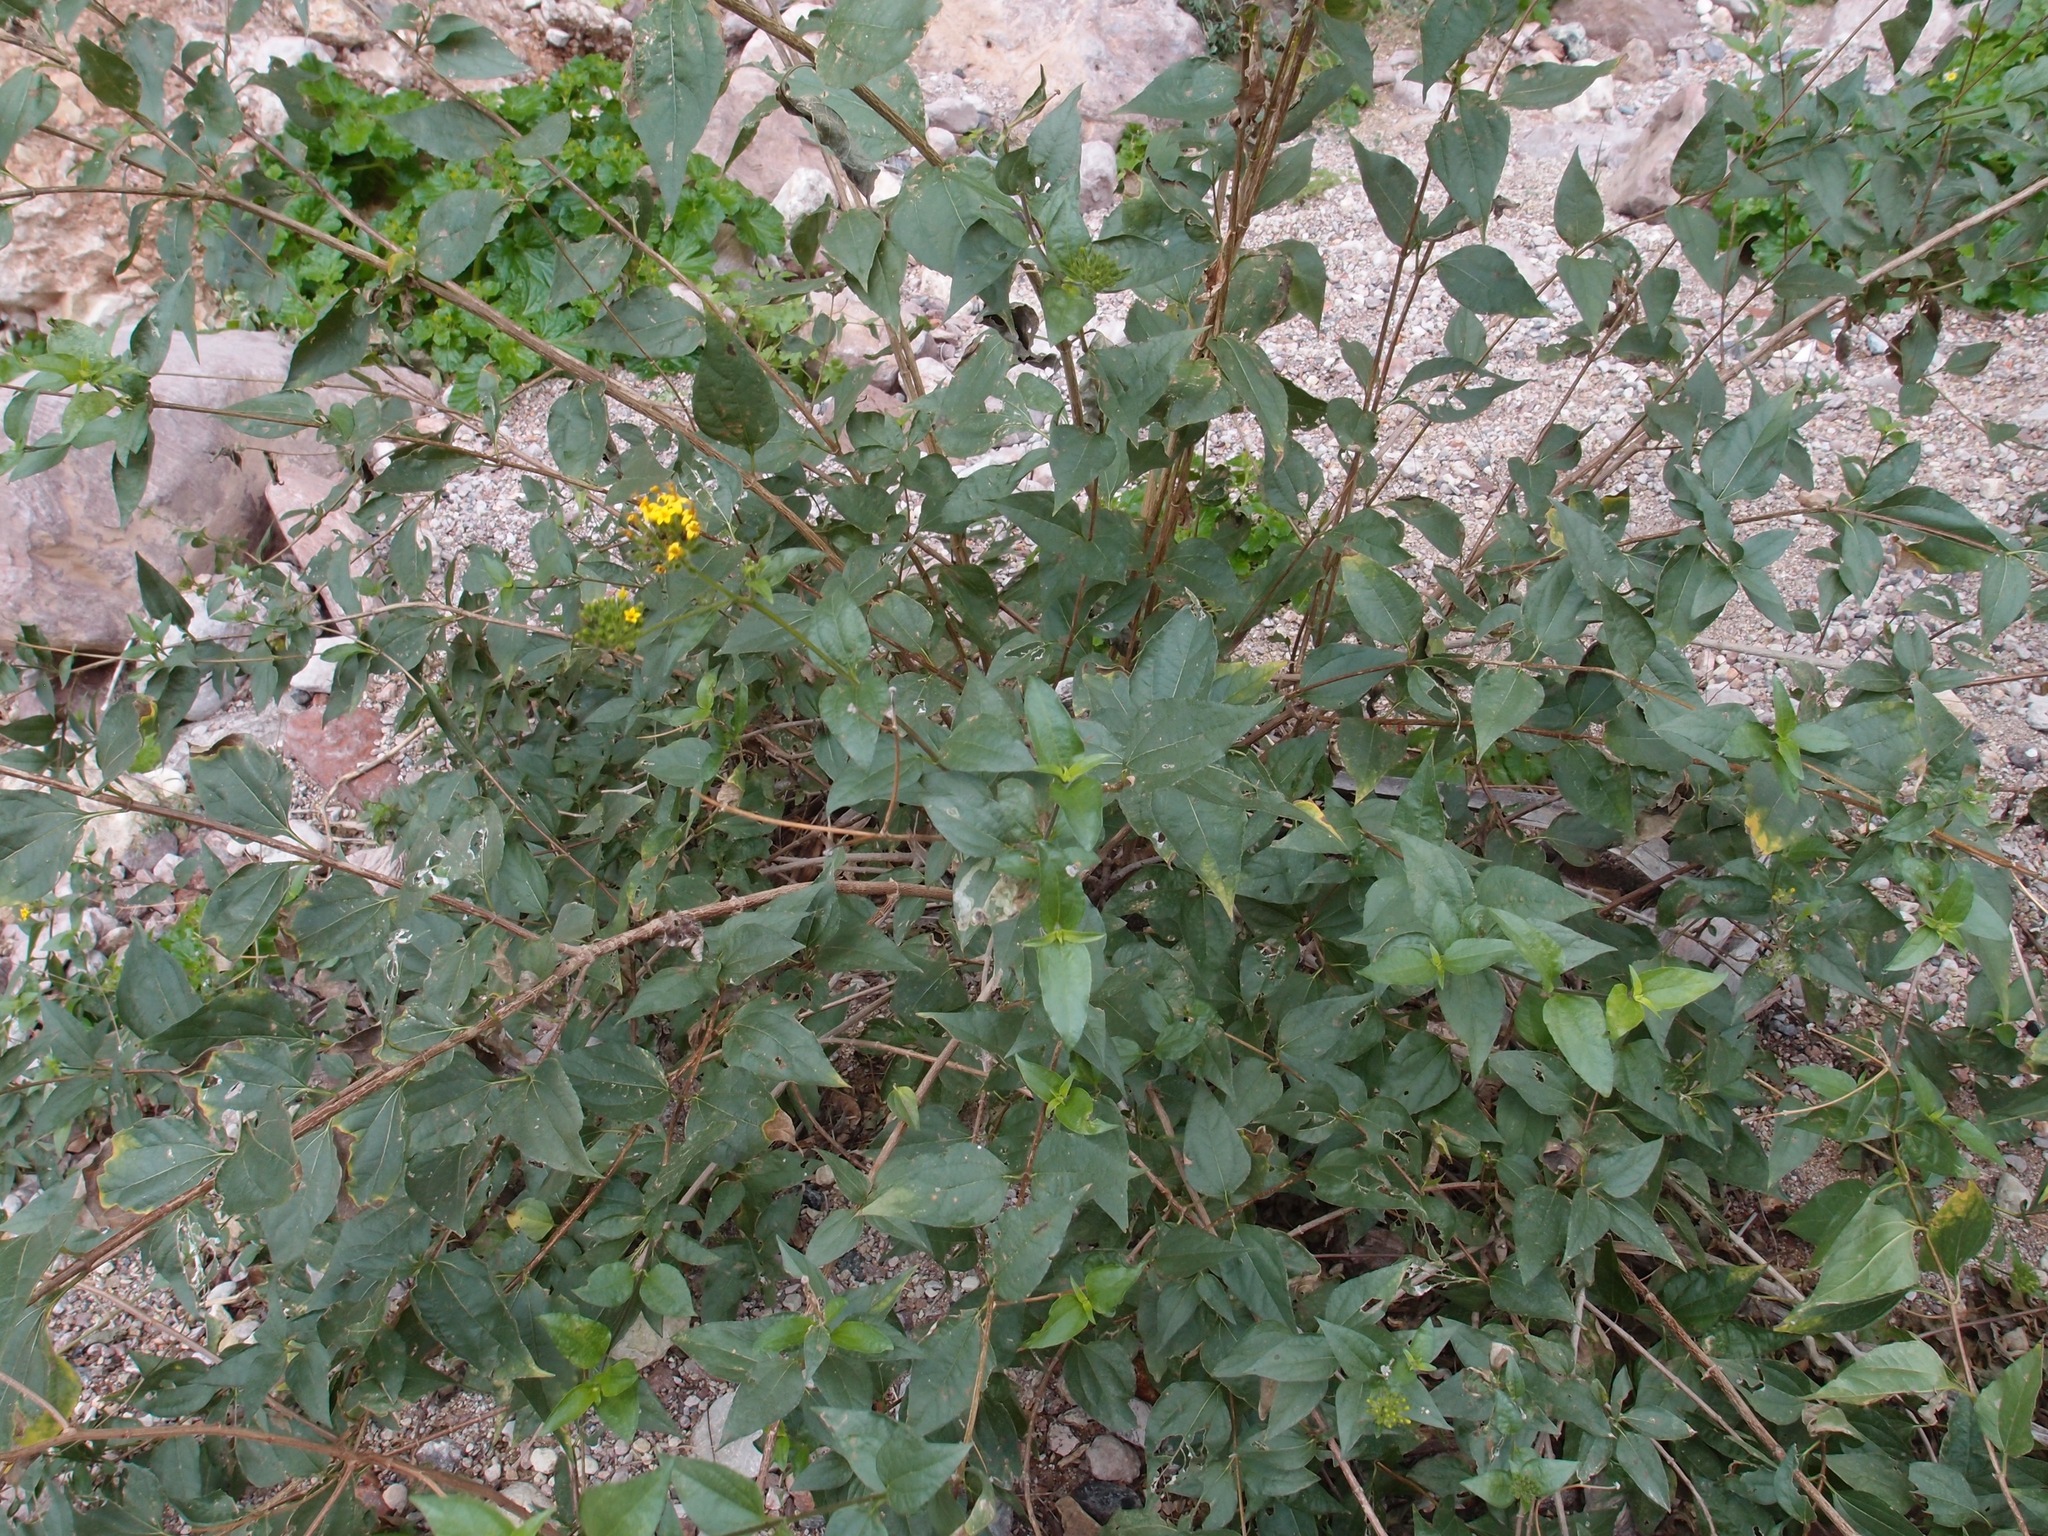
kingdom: Plantae
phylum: Tracheophyta
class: Magnoliopsida
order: Asterales
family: Asteraceae
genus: Lagascea
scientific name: Lagascea decipiens
